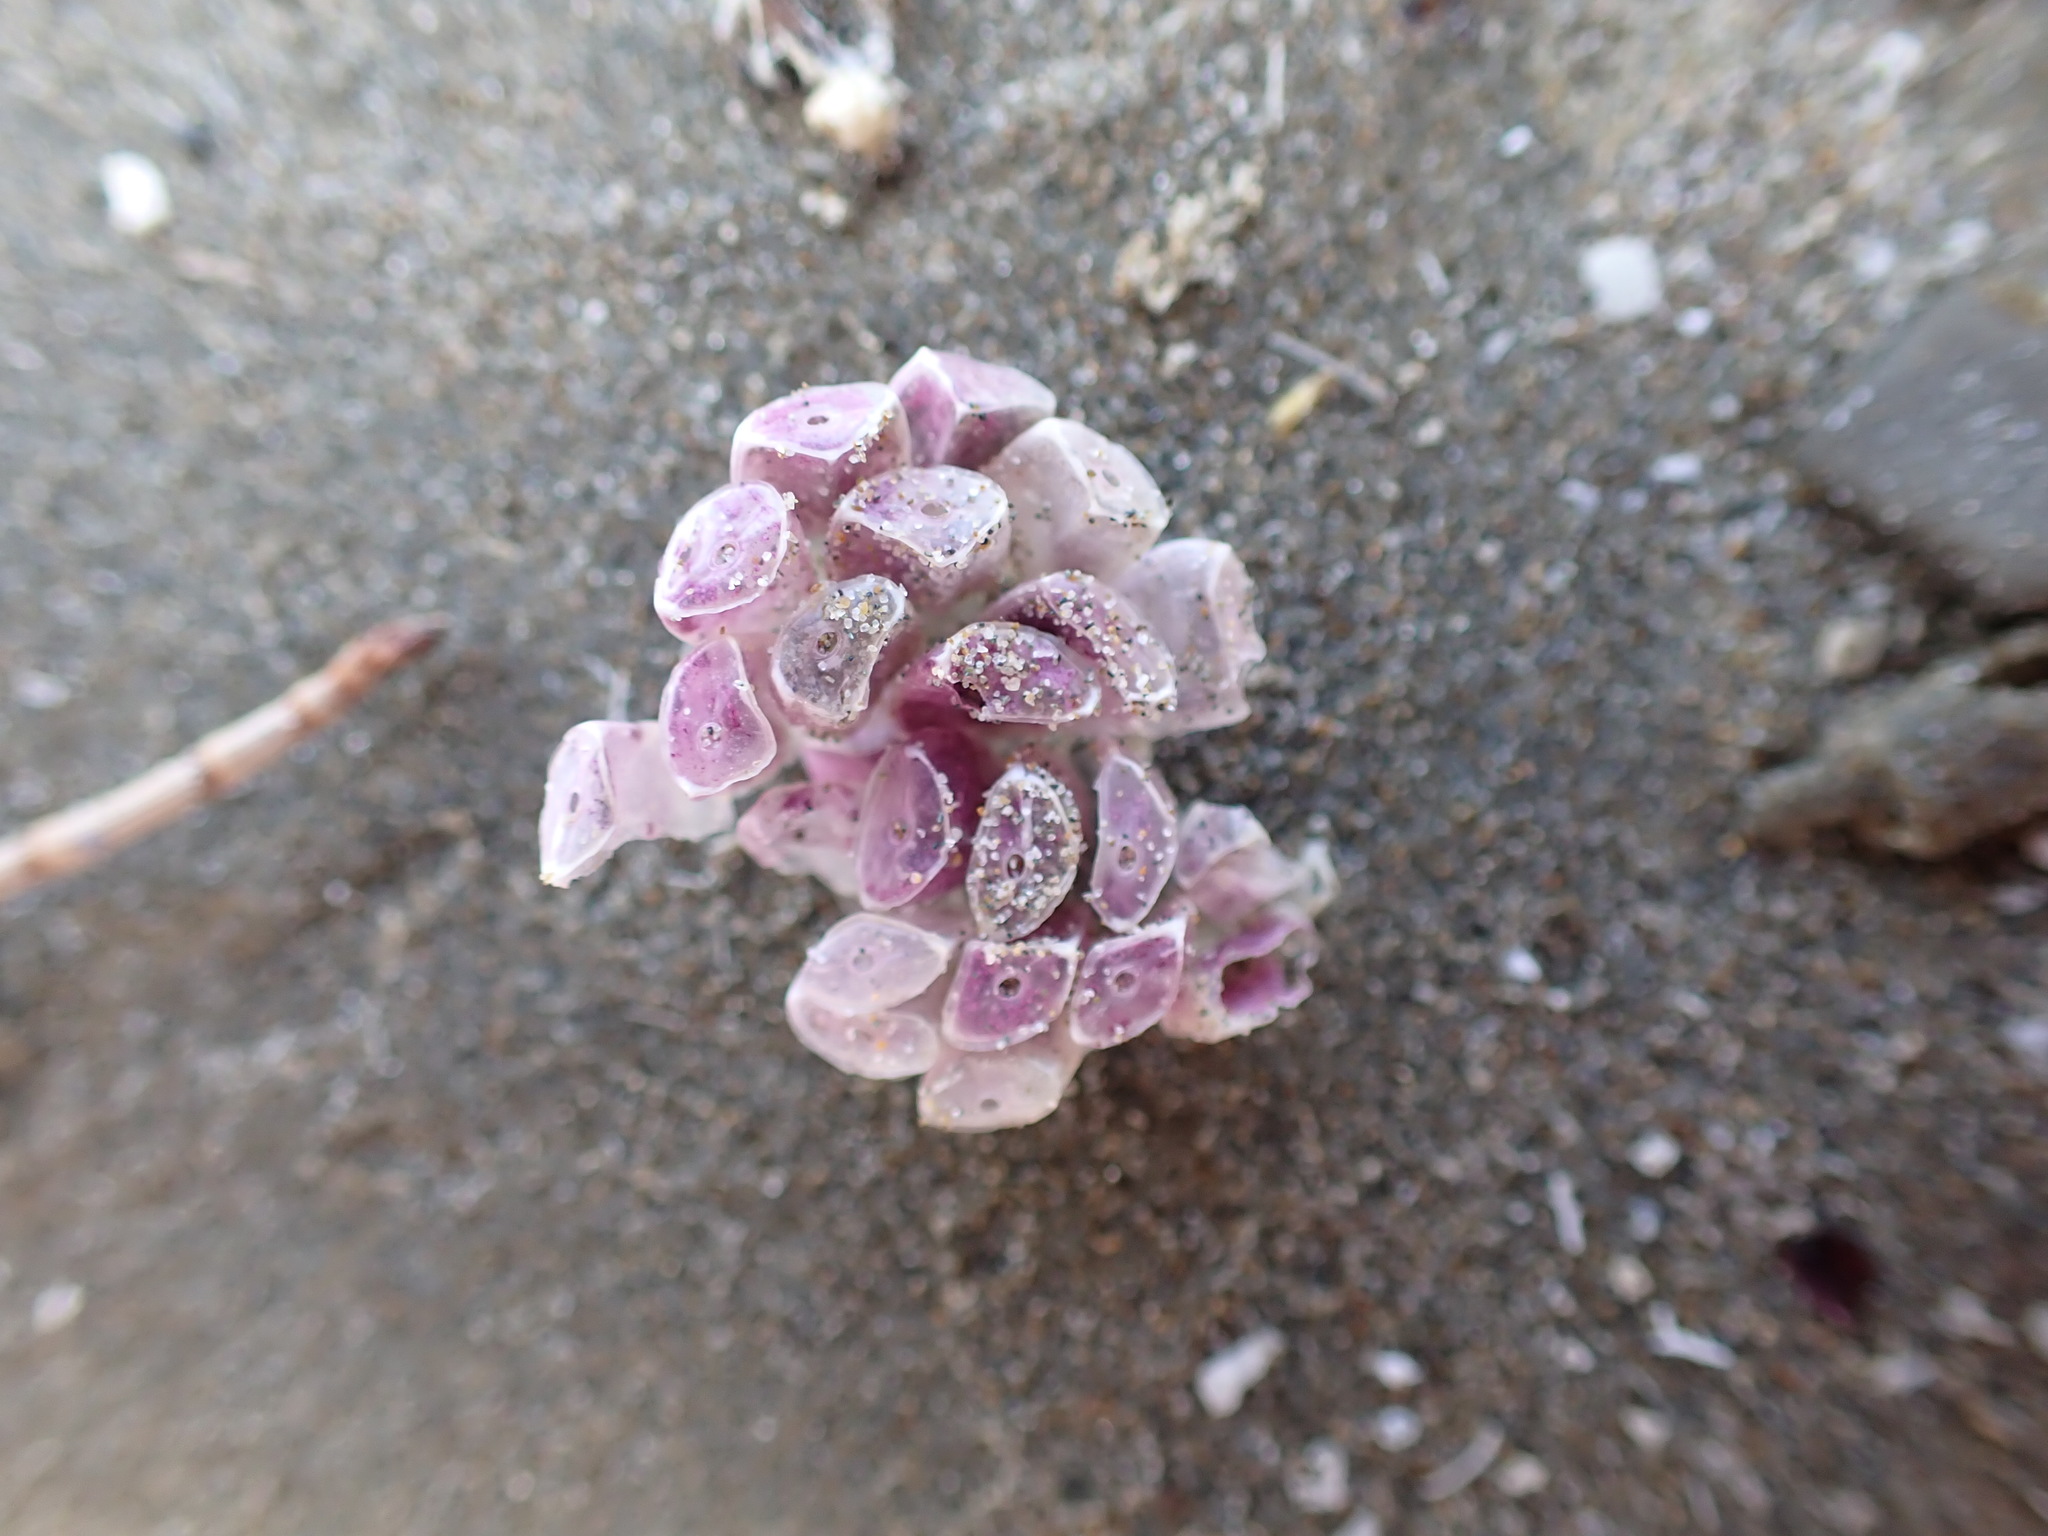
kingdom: Animalia
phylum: Mollusca
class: Gastropoda
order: Neogastropoda
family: Muricidae
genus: Dicathais
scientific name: Dicathais orbita
